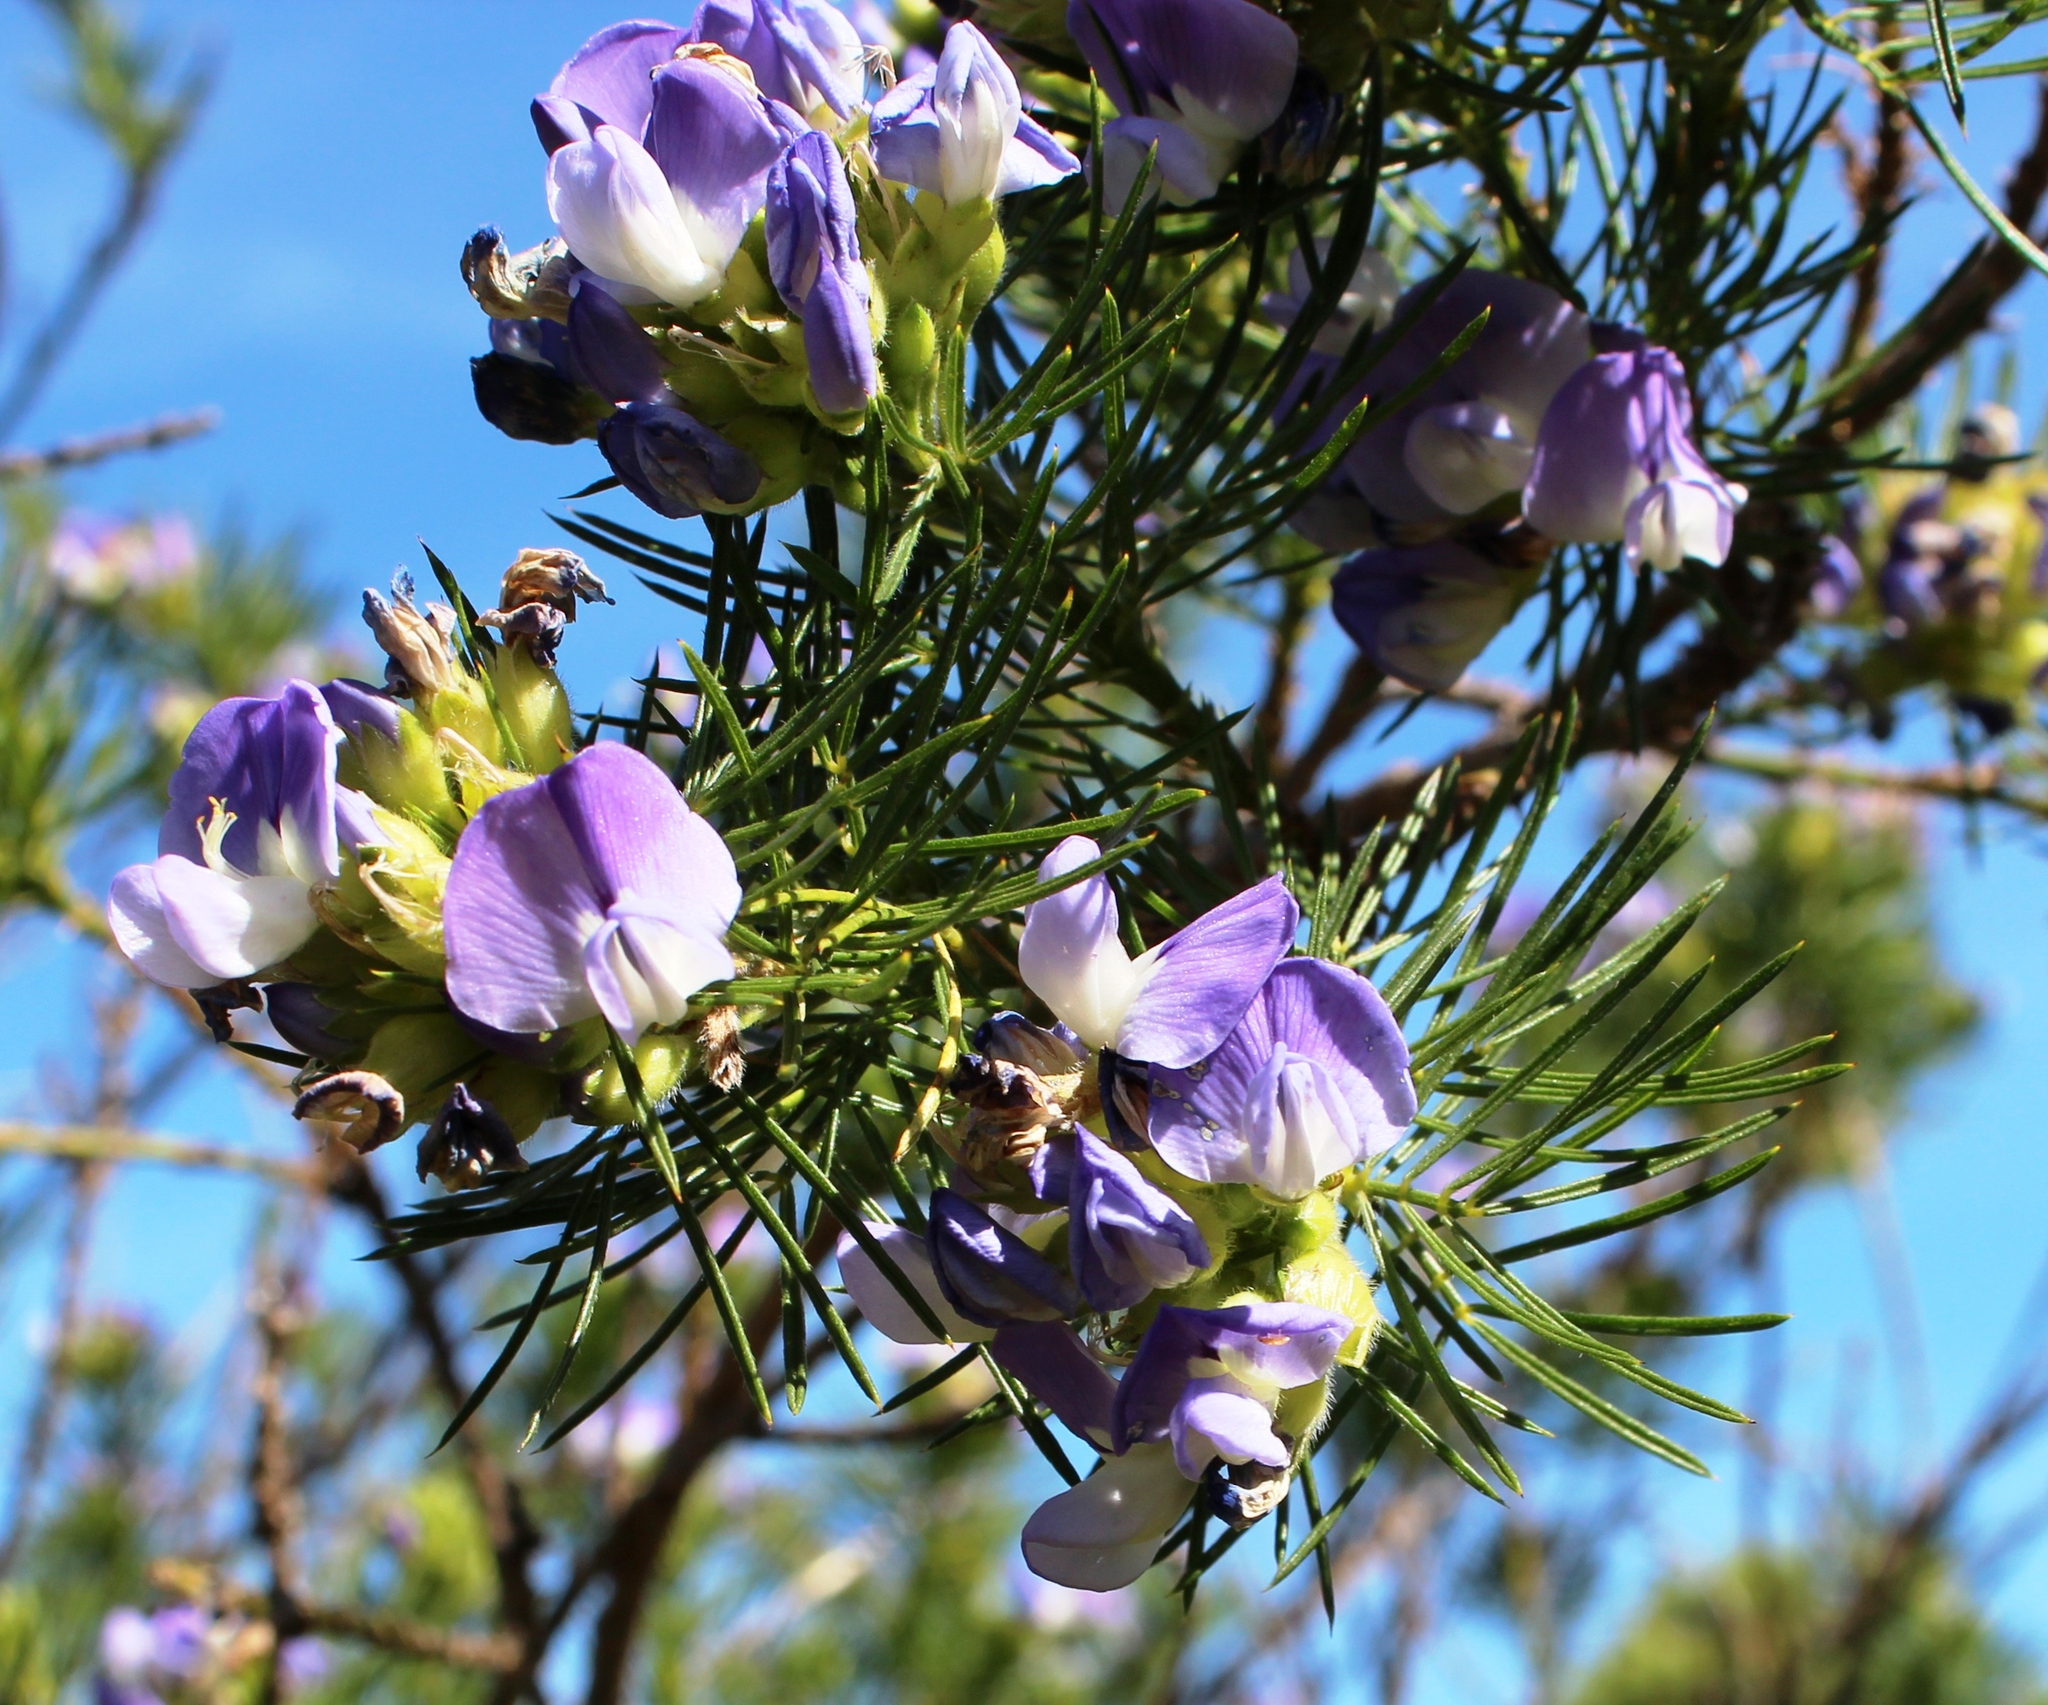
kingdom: Plantae
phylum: Tracheophyta
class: Magnoliopsida
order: Fabales
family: Fabaceae
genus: Psoralea
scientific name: Psoralea pinnata
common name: African scurfpea
